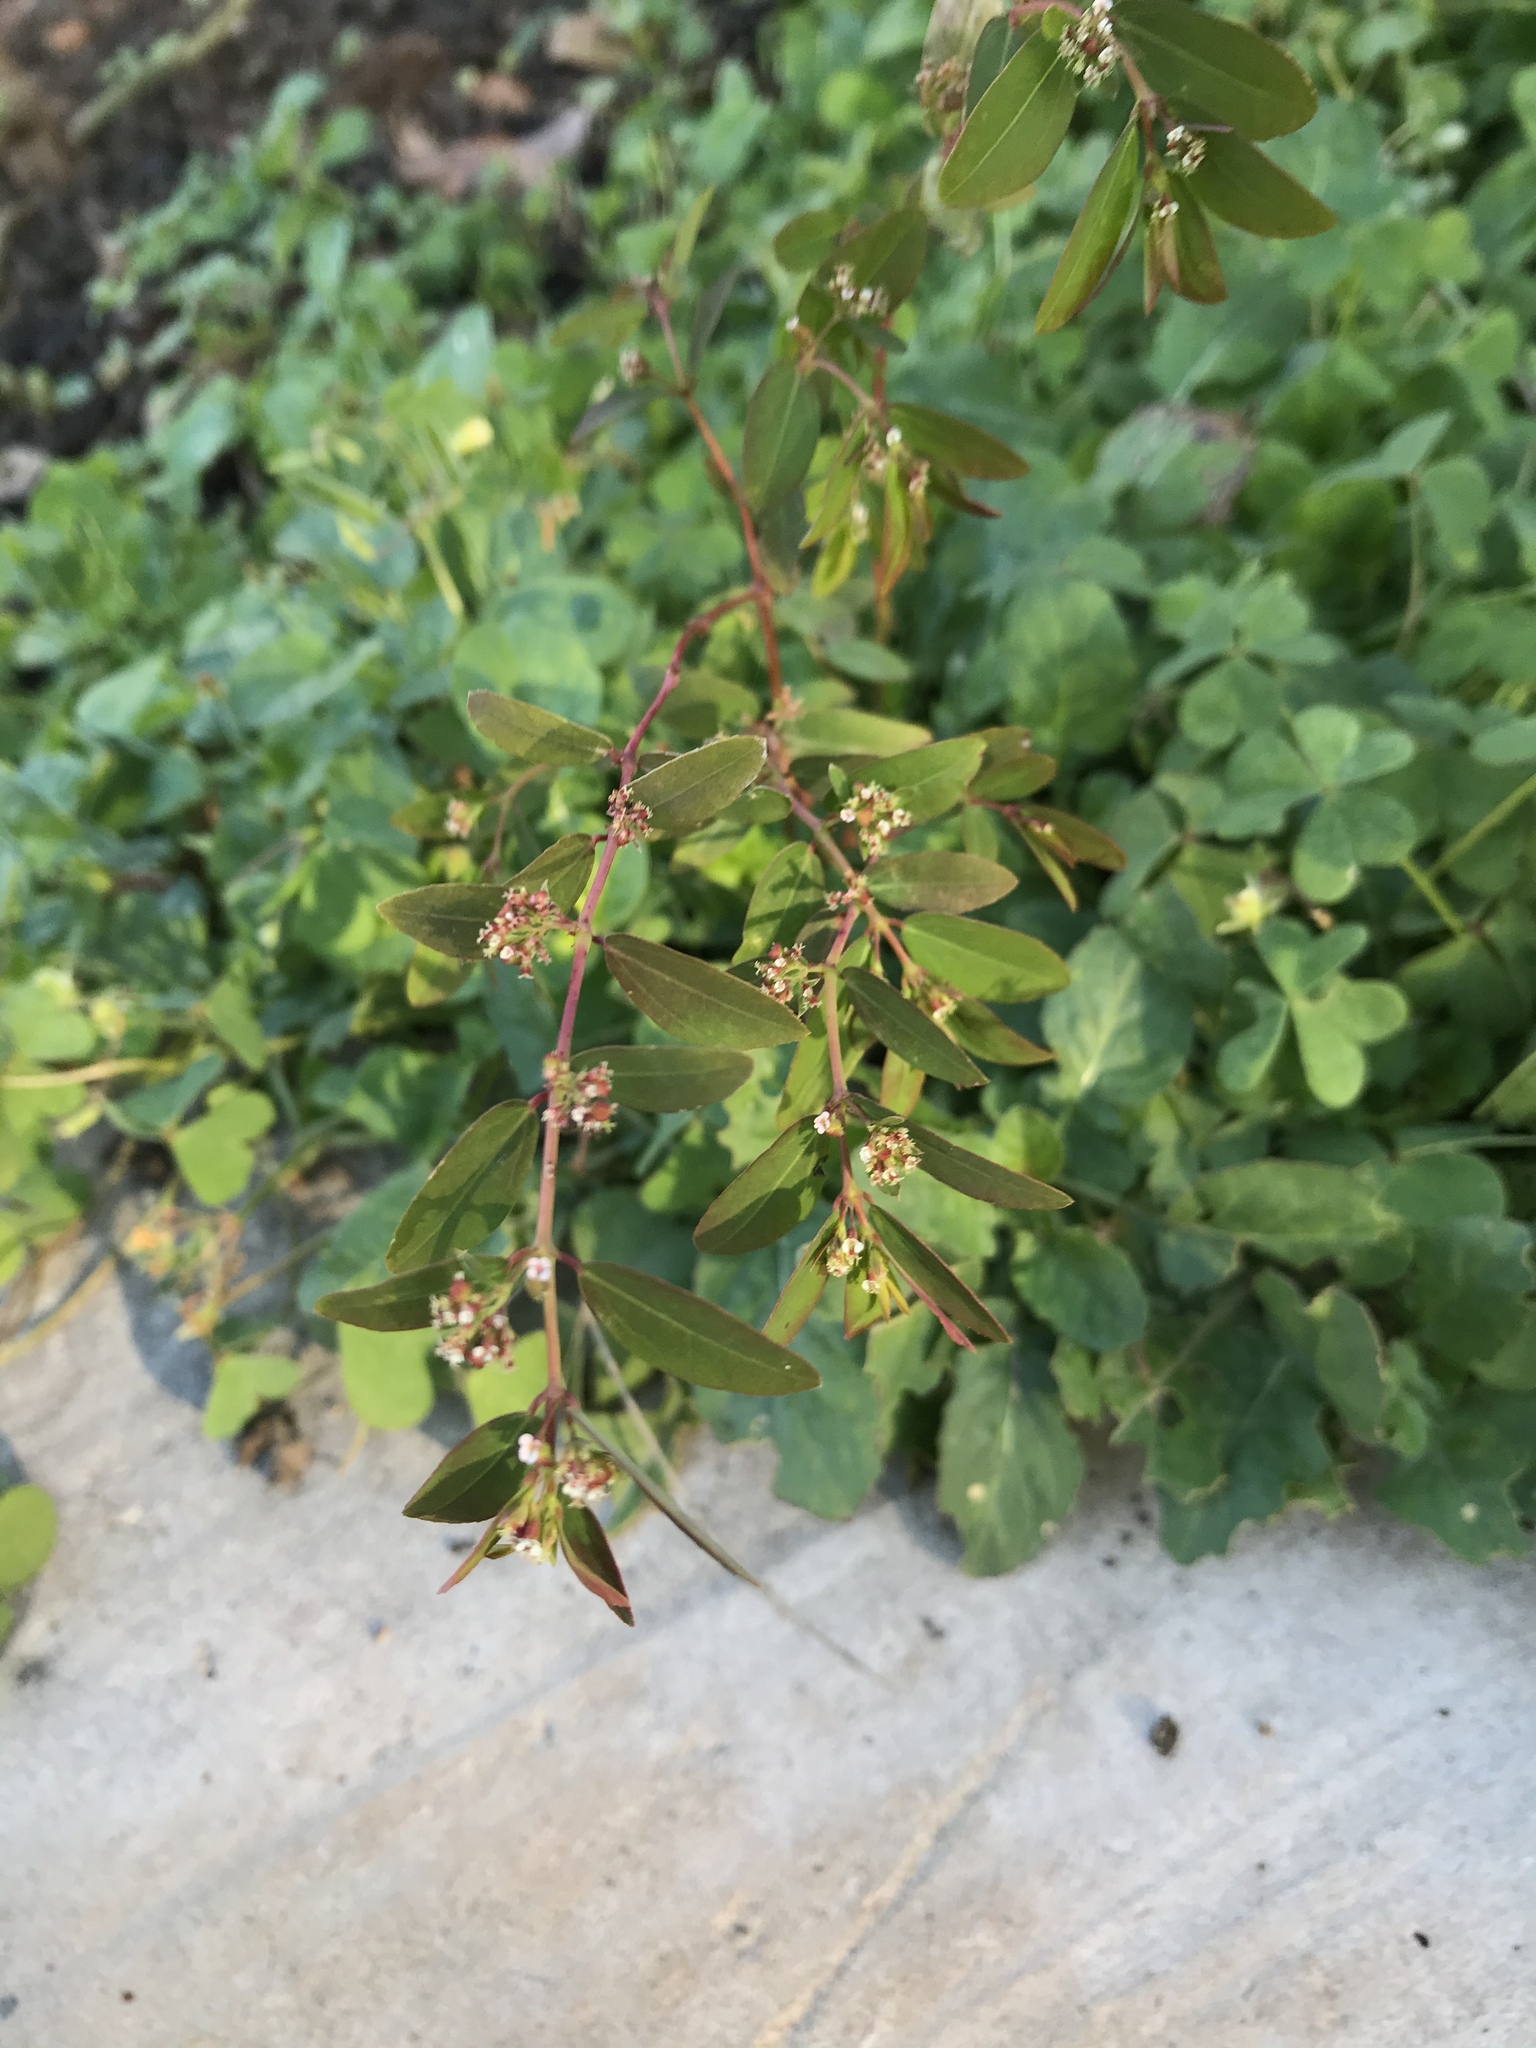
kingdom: Plantae
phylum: Tracheophyta
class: Magnoliopsida
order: Malpighiales
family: Euphorbiaceae
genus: Euphorbia
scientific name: Euphorbia hypericifolia
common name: Graceful sandmat
